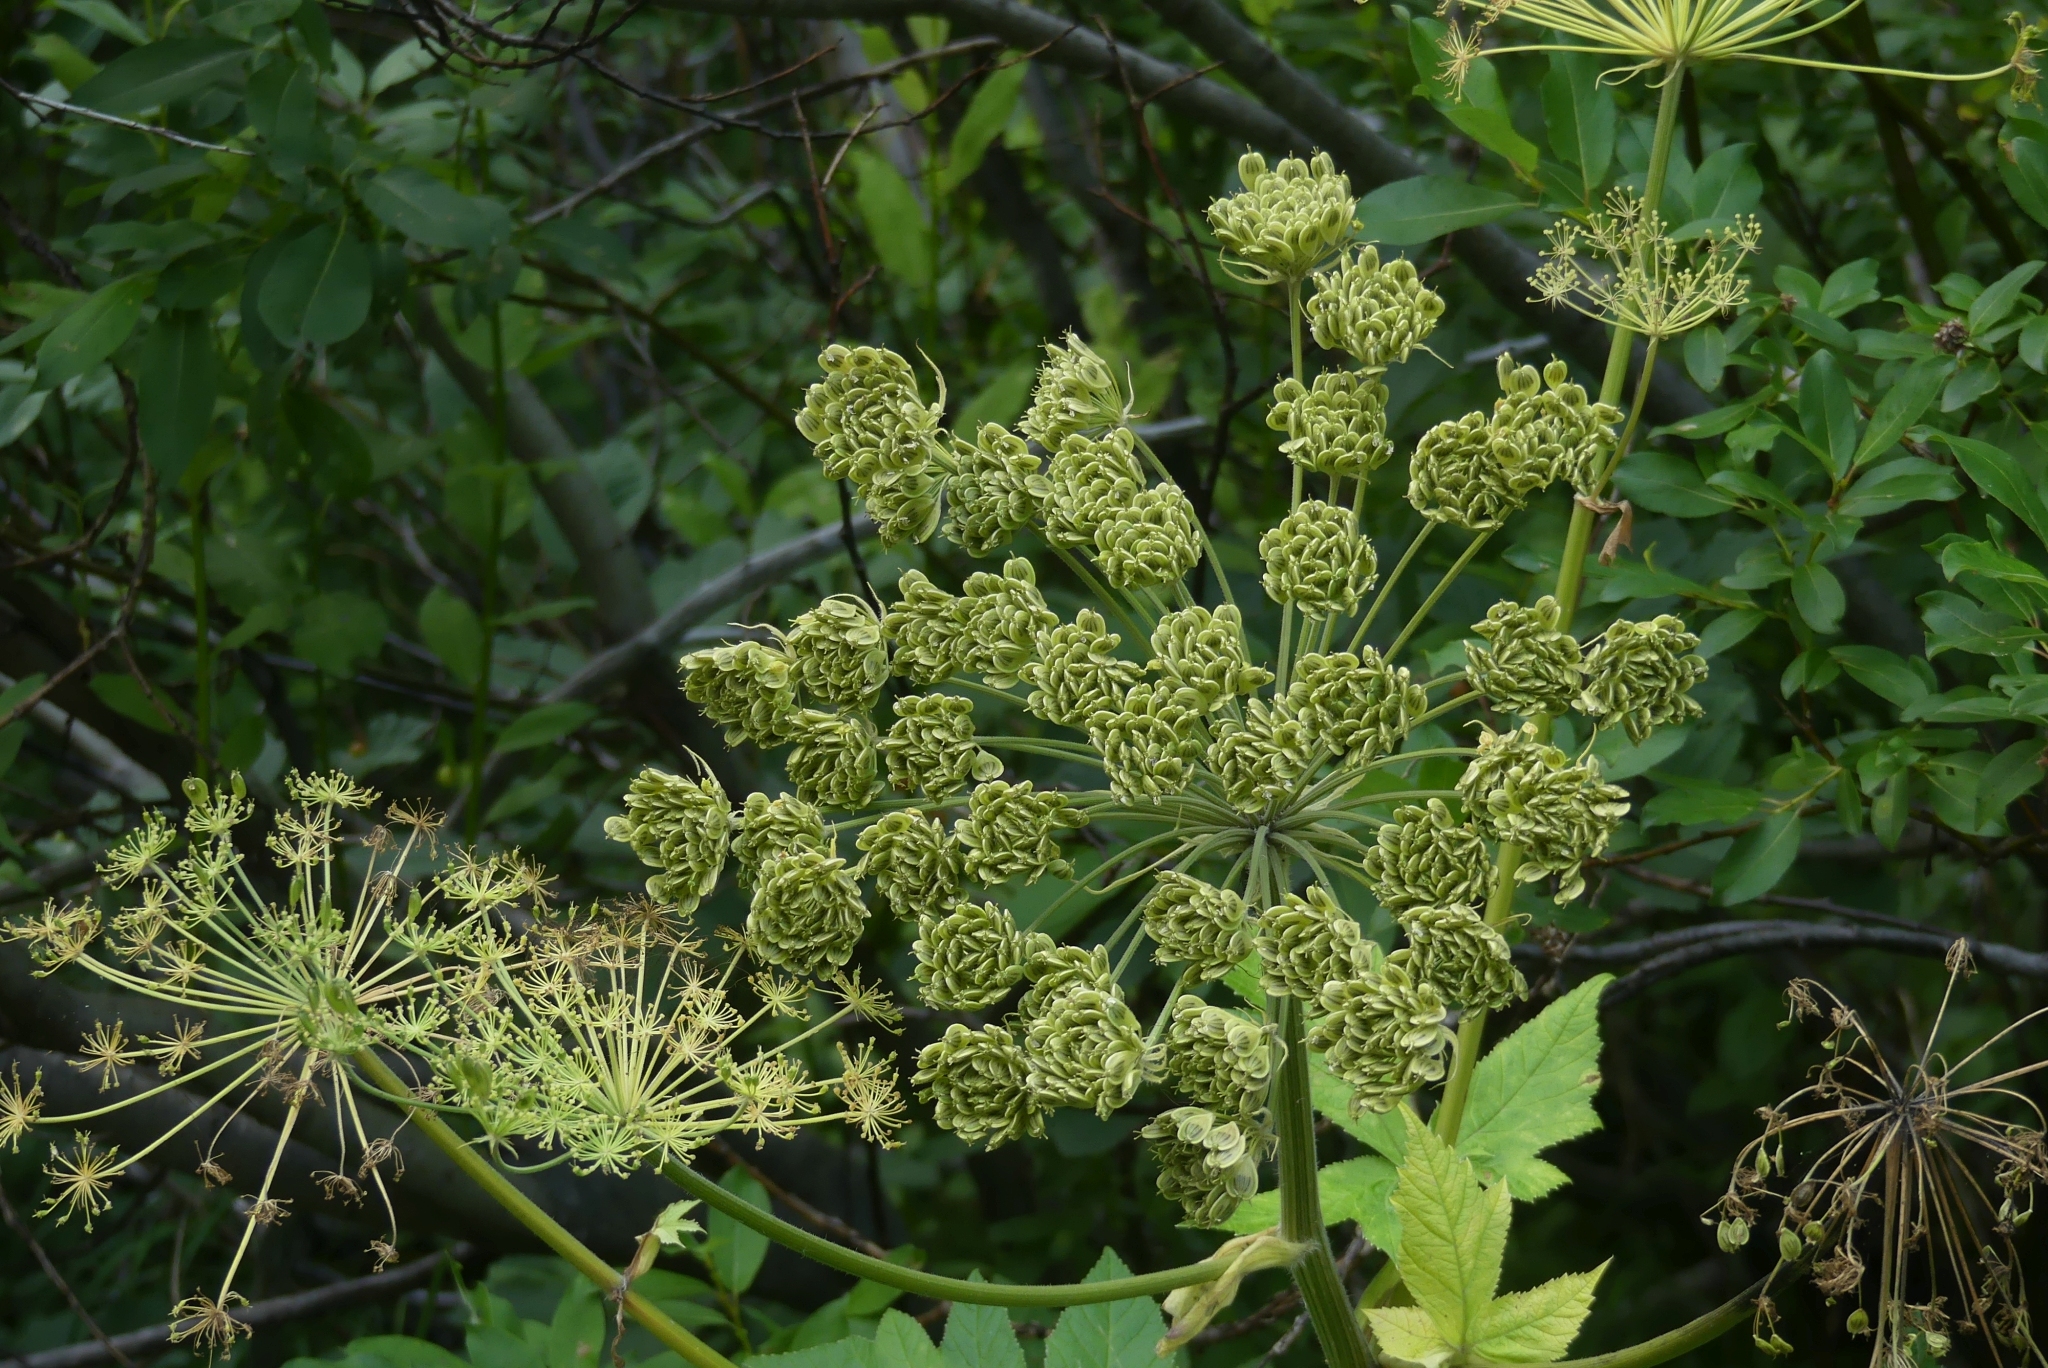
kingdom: Plantae
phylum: Tracheophyta
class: Magnoliopsida
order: Apiales
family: Apiaceae
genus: Heracleum
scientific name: Heracleum maximum
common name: American cow parsnip
